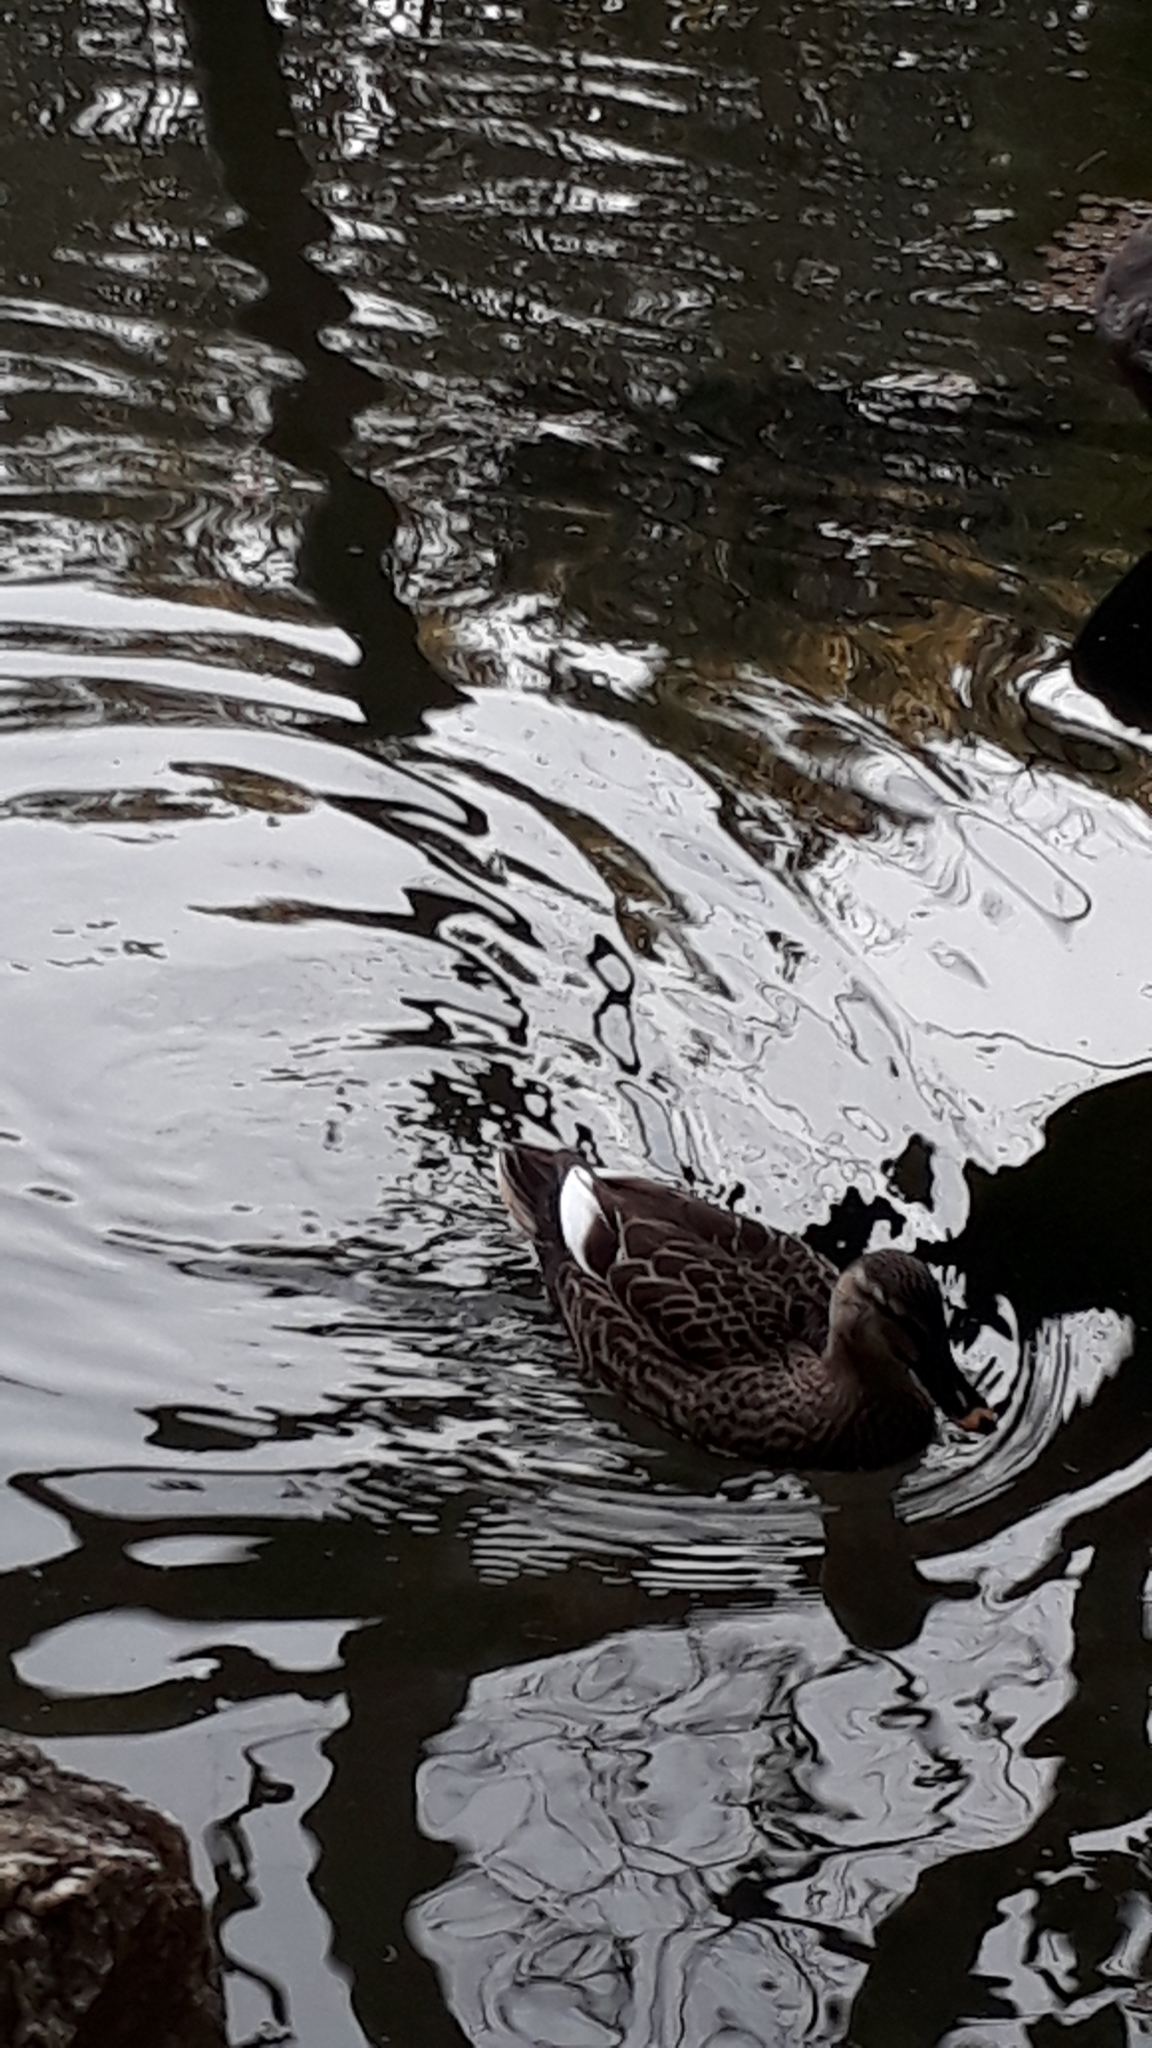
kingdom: Animalia
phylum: Chordata
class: Aves
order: Anseriformes
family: Anatidae
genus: Anas
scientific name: Anas zonorhyncha
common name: Eastern spot-billed duck
